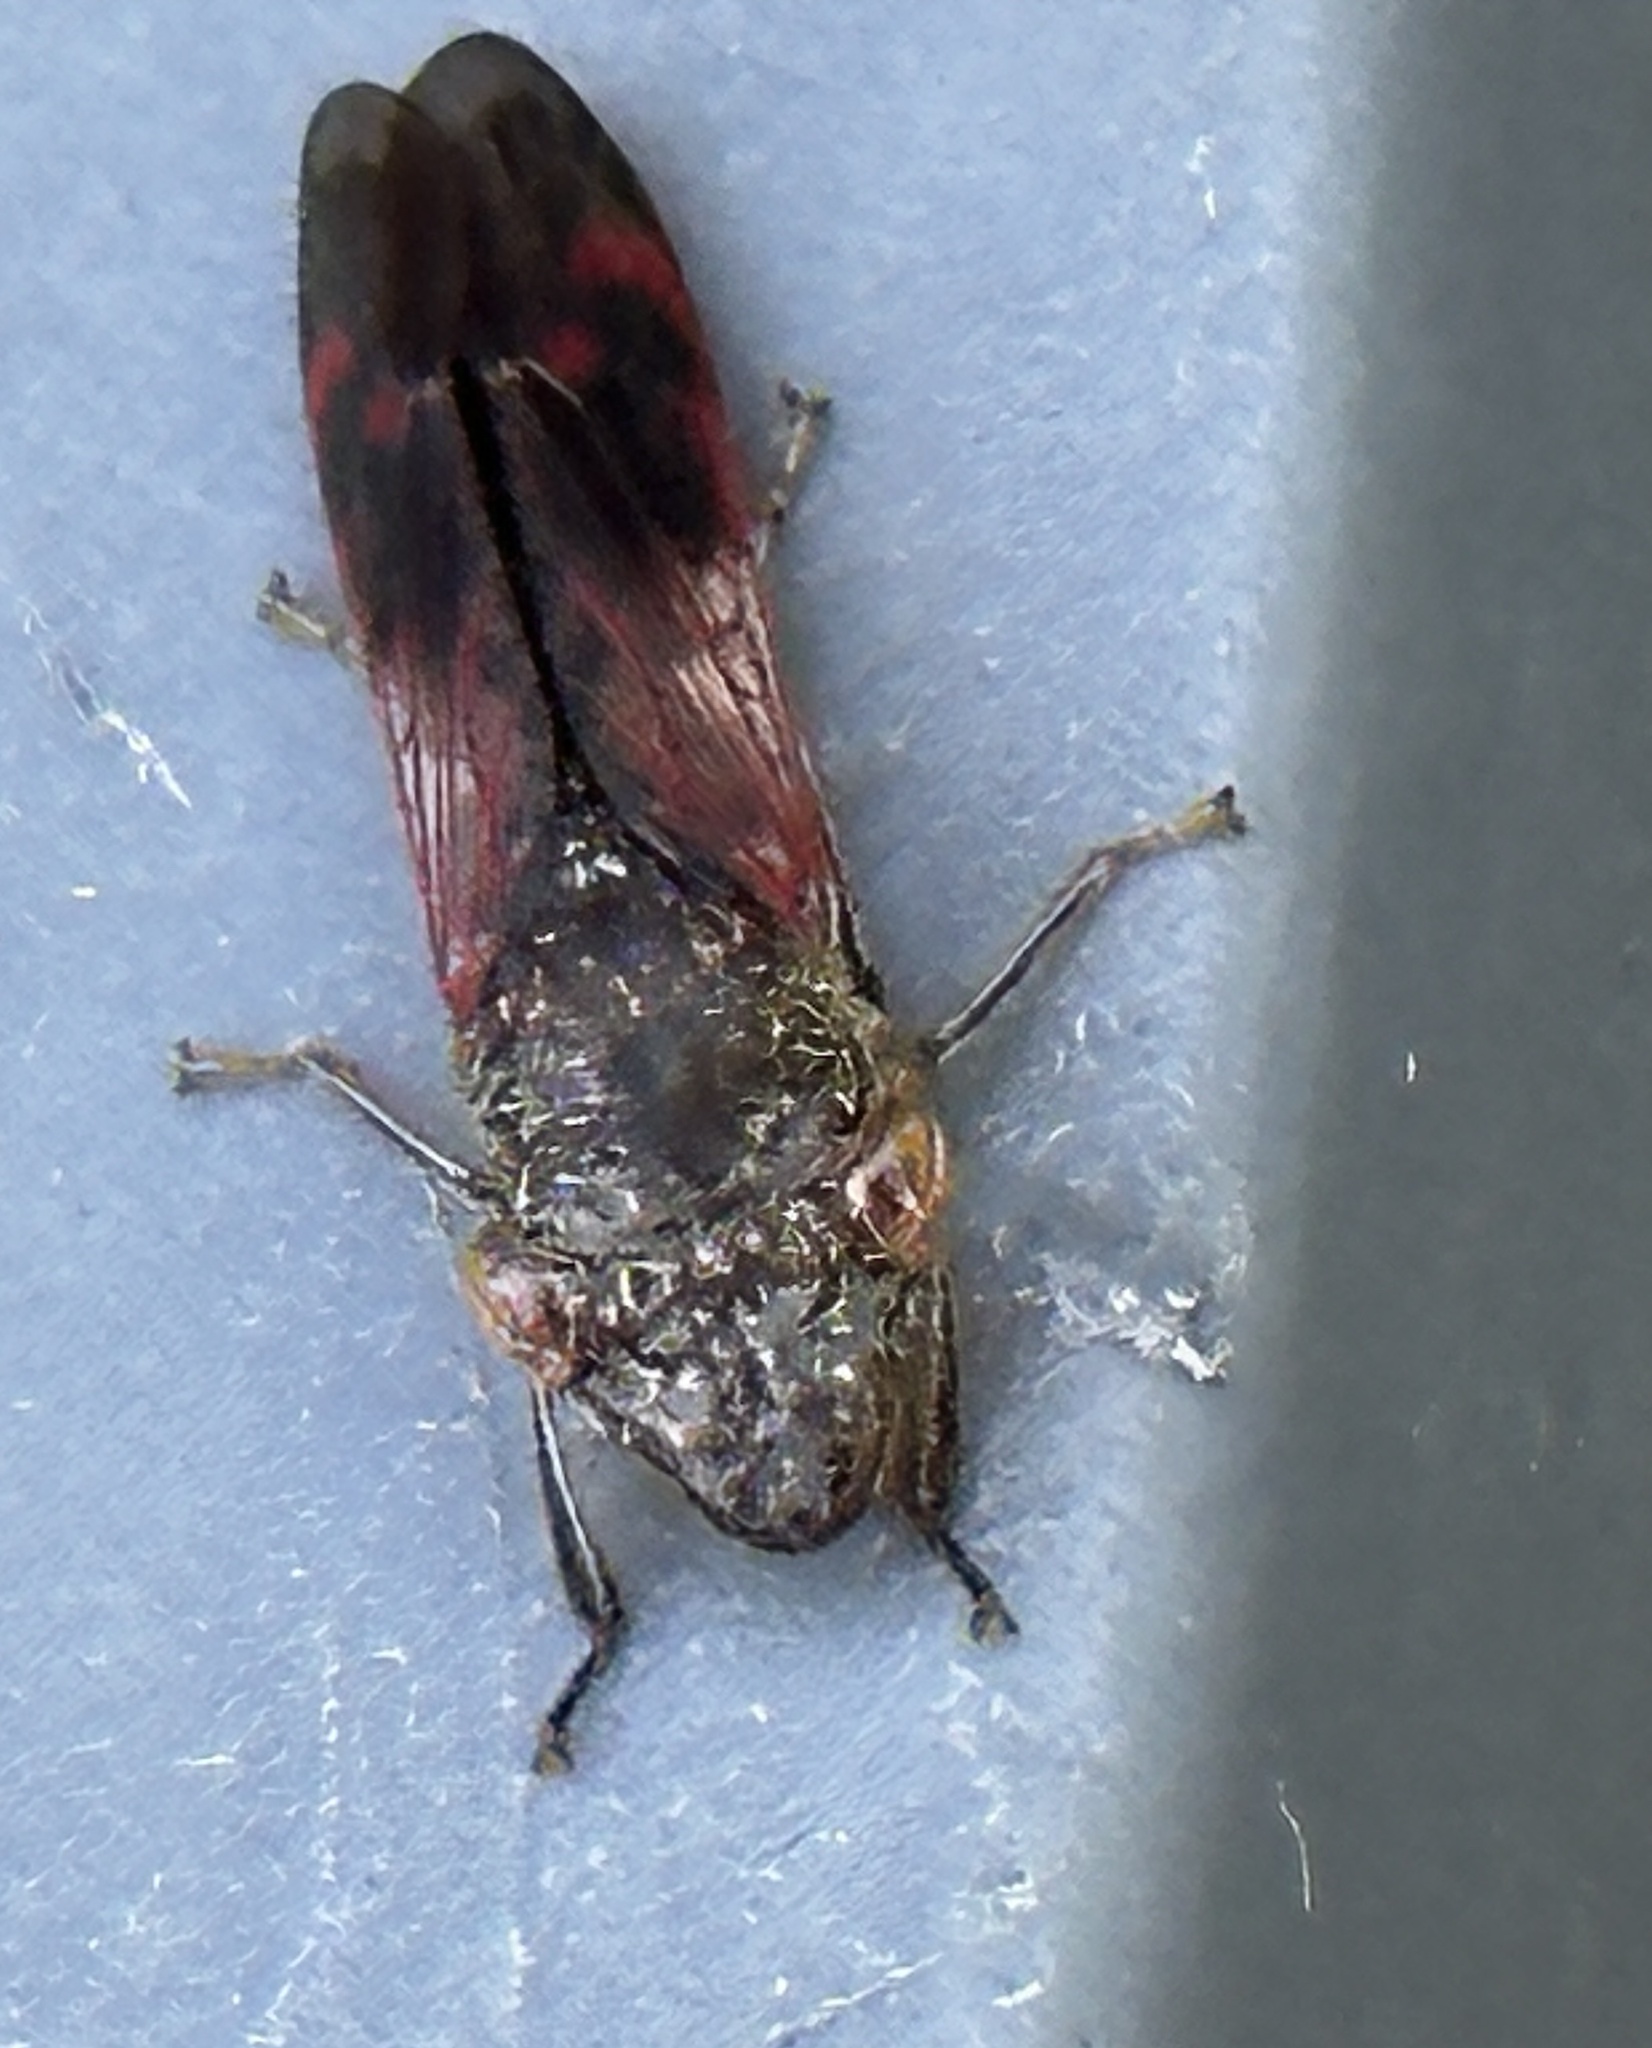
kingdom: Animalia
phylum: Arthropoda
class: Insecta
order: Hemiptera
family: Cicadellidae
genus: Homalodisca
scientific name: Homalodisca vitripennis
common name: Glassy-winged sharpshooter
